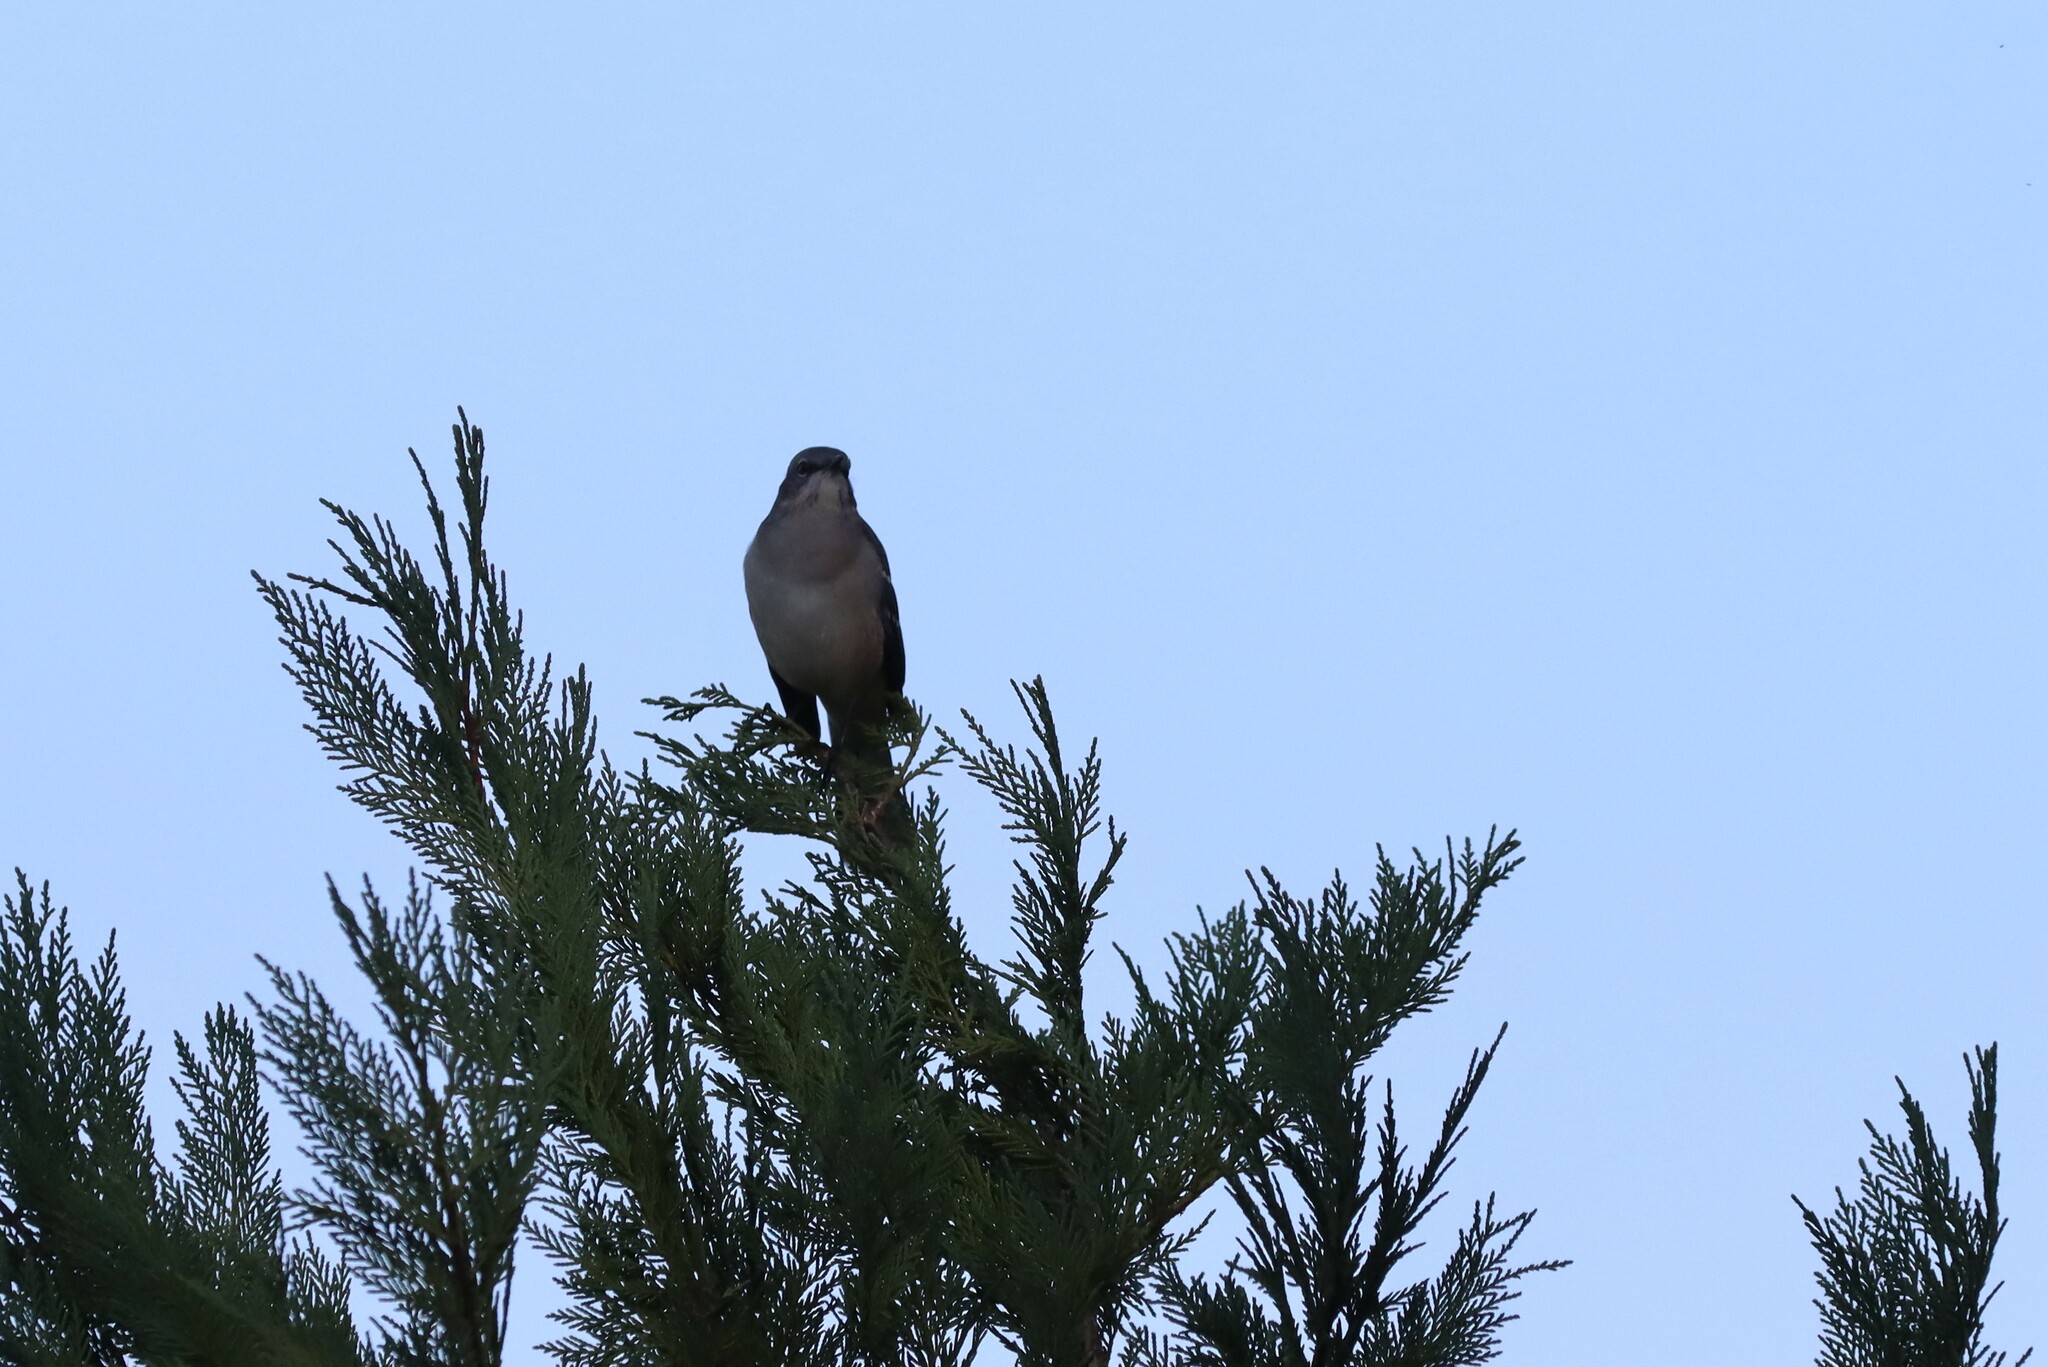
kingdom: Animalia
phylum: Chordata
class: Aves
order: Passeriformes
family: Mimidae
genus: Mimus
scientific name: Mimus polyglottos
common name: Northern mockingbird
